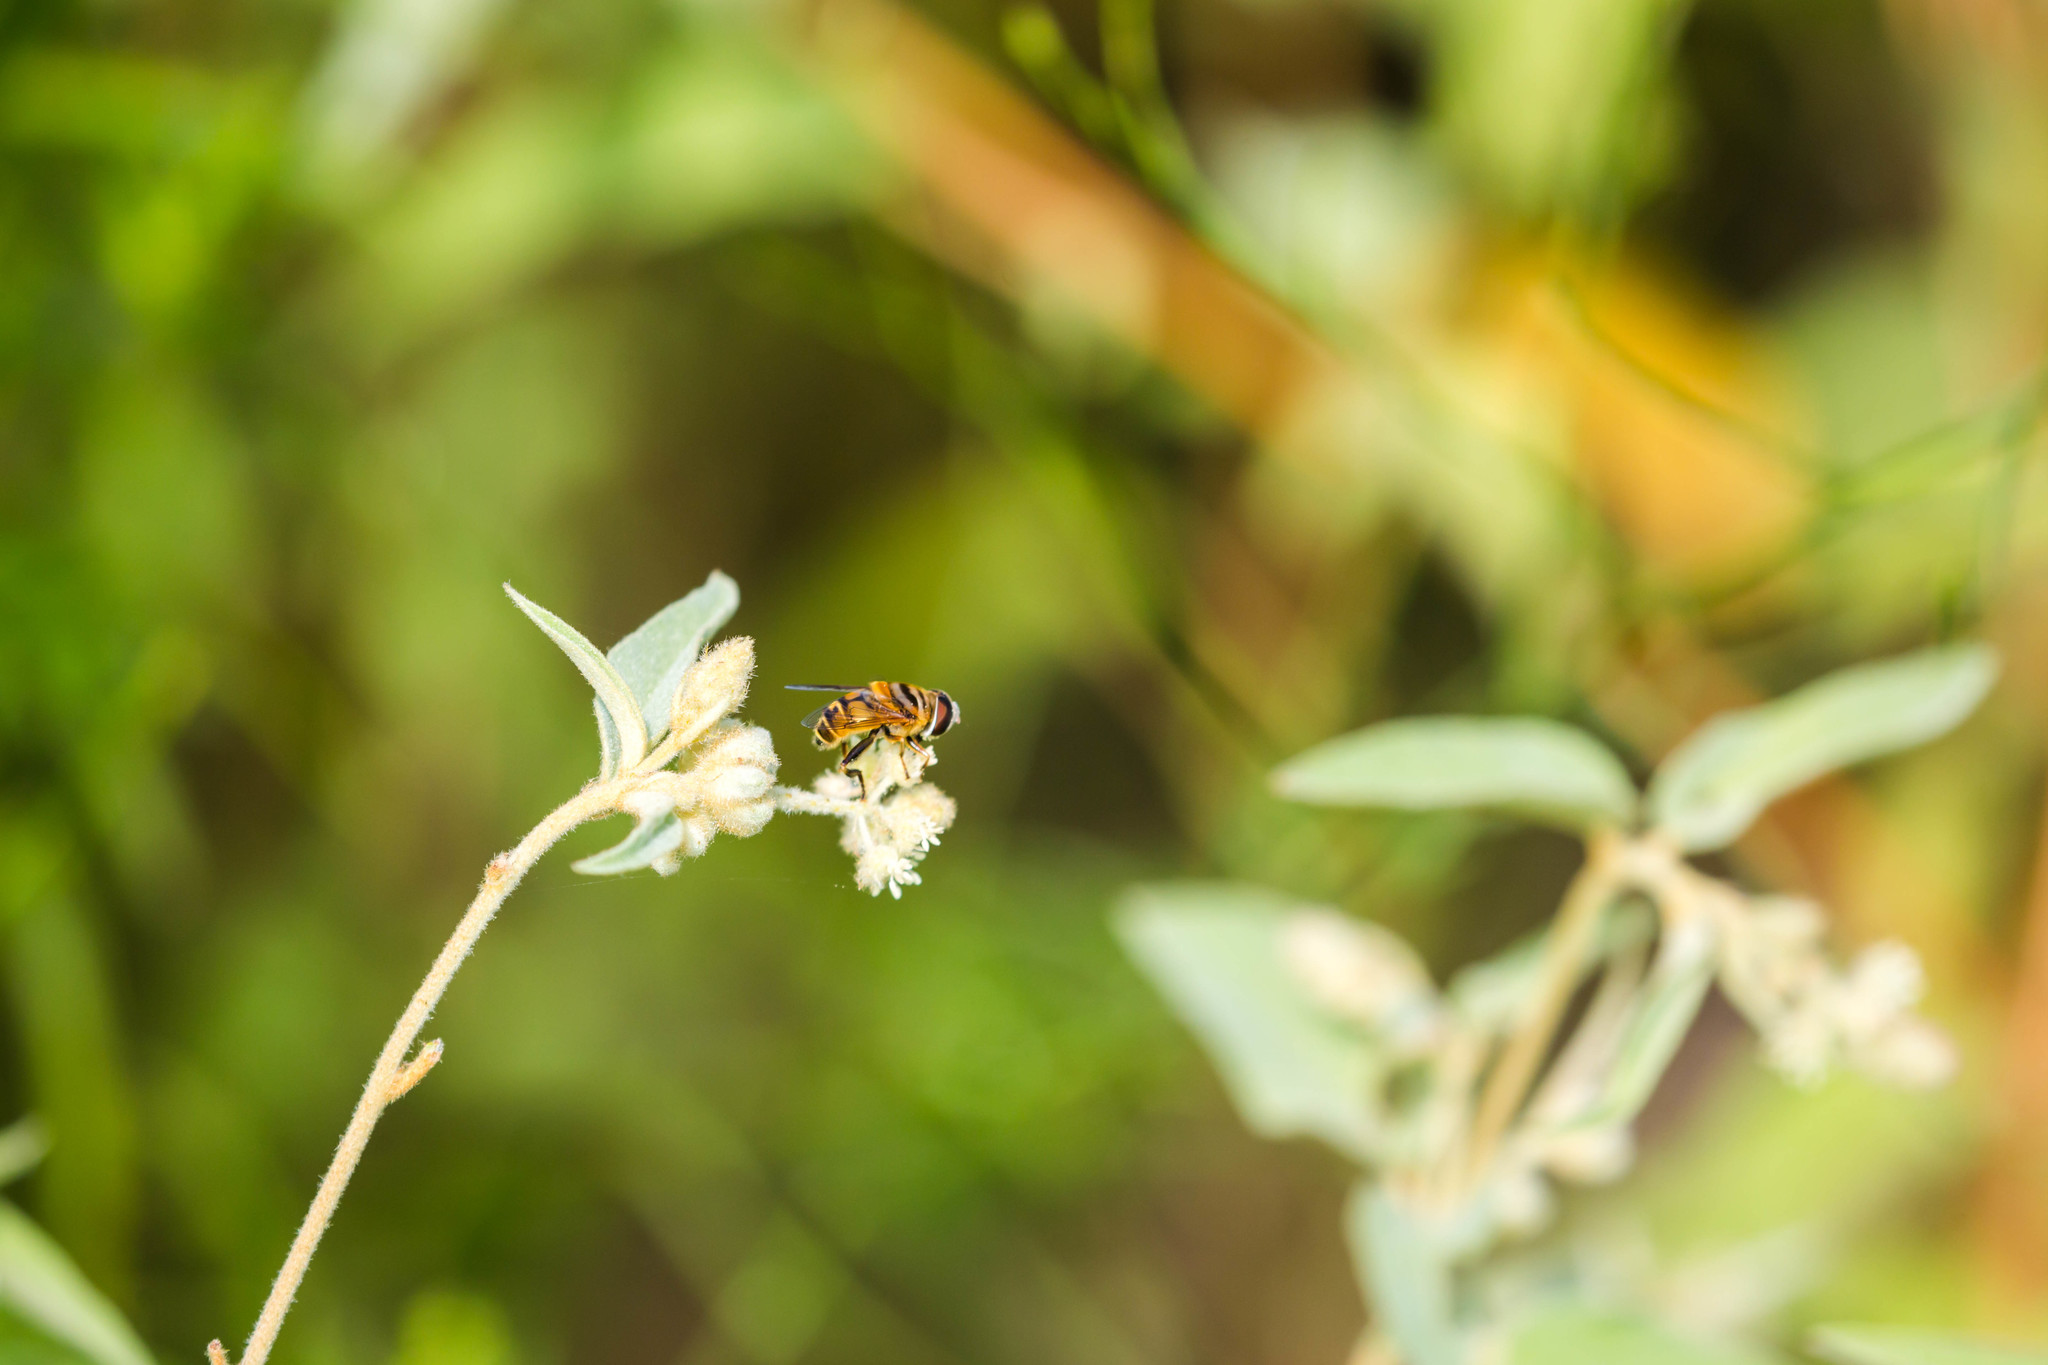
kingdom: Animalia
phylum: Arthropoda
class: Insecta
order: Diptera
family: Syrphidae
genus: Palpada
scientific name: Palpada vinetorum
